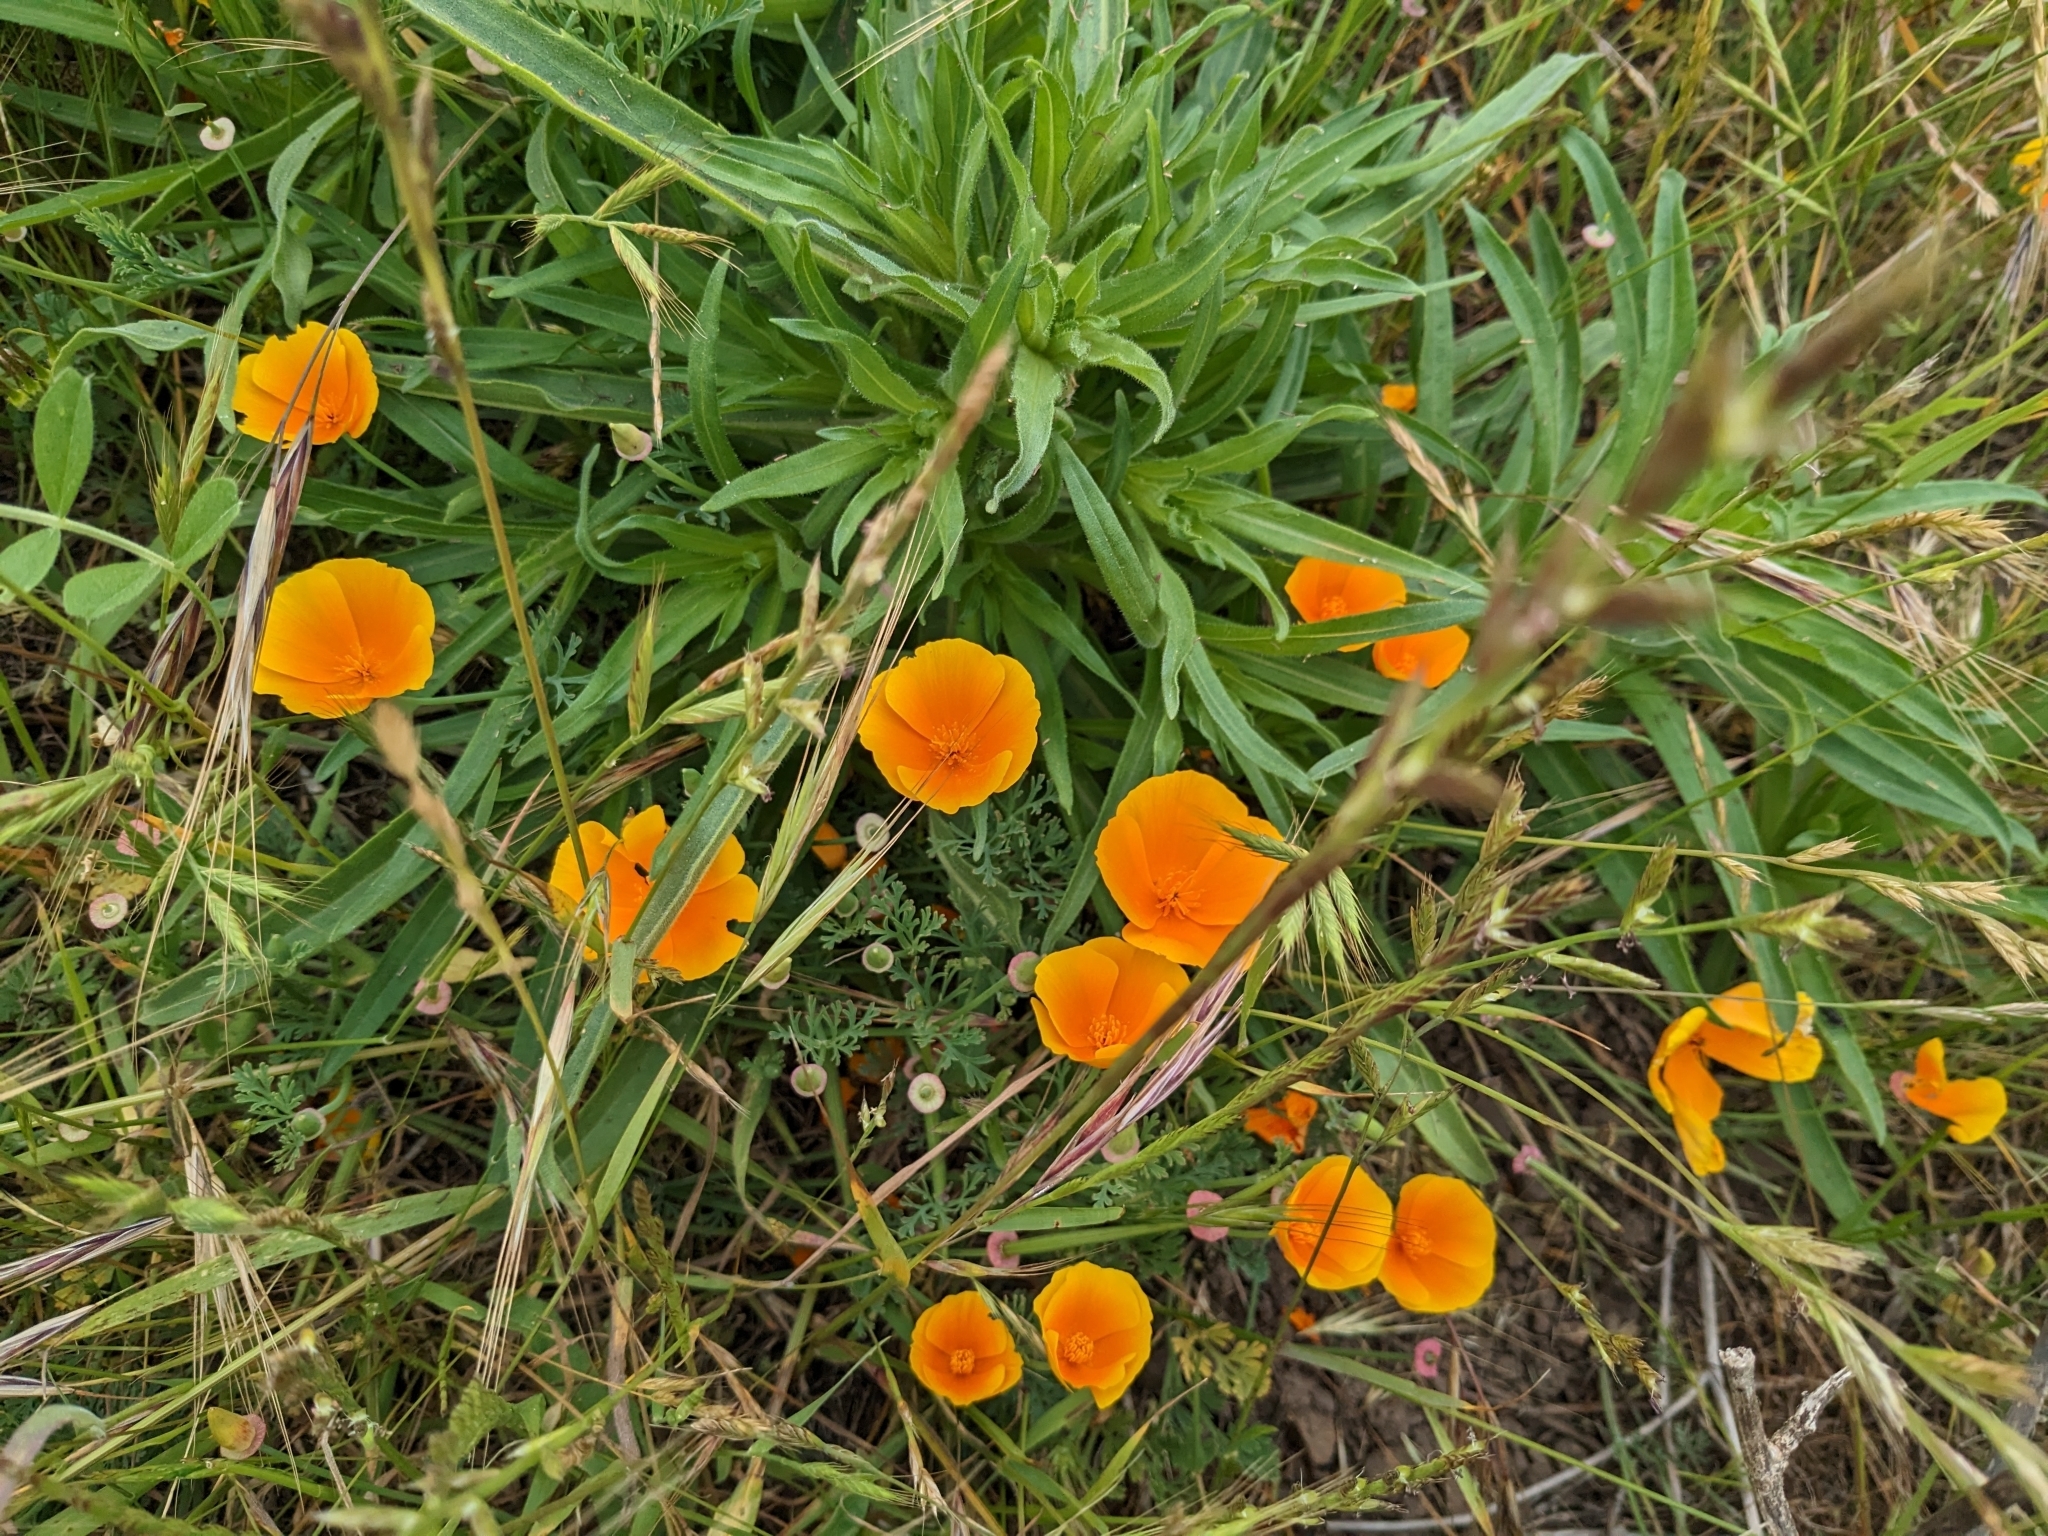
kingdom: Plantae
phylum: Tracheophyta
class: Magnoliopsida
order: Ranunculales
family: Papaveraceae
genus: Eschscholzia
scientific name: Eschscholzia californica
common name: California poppy
